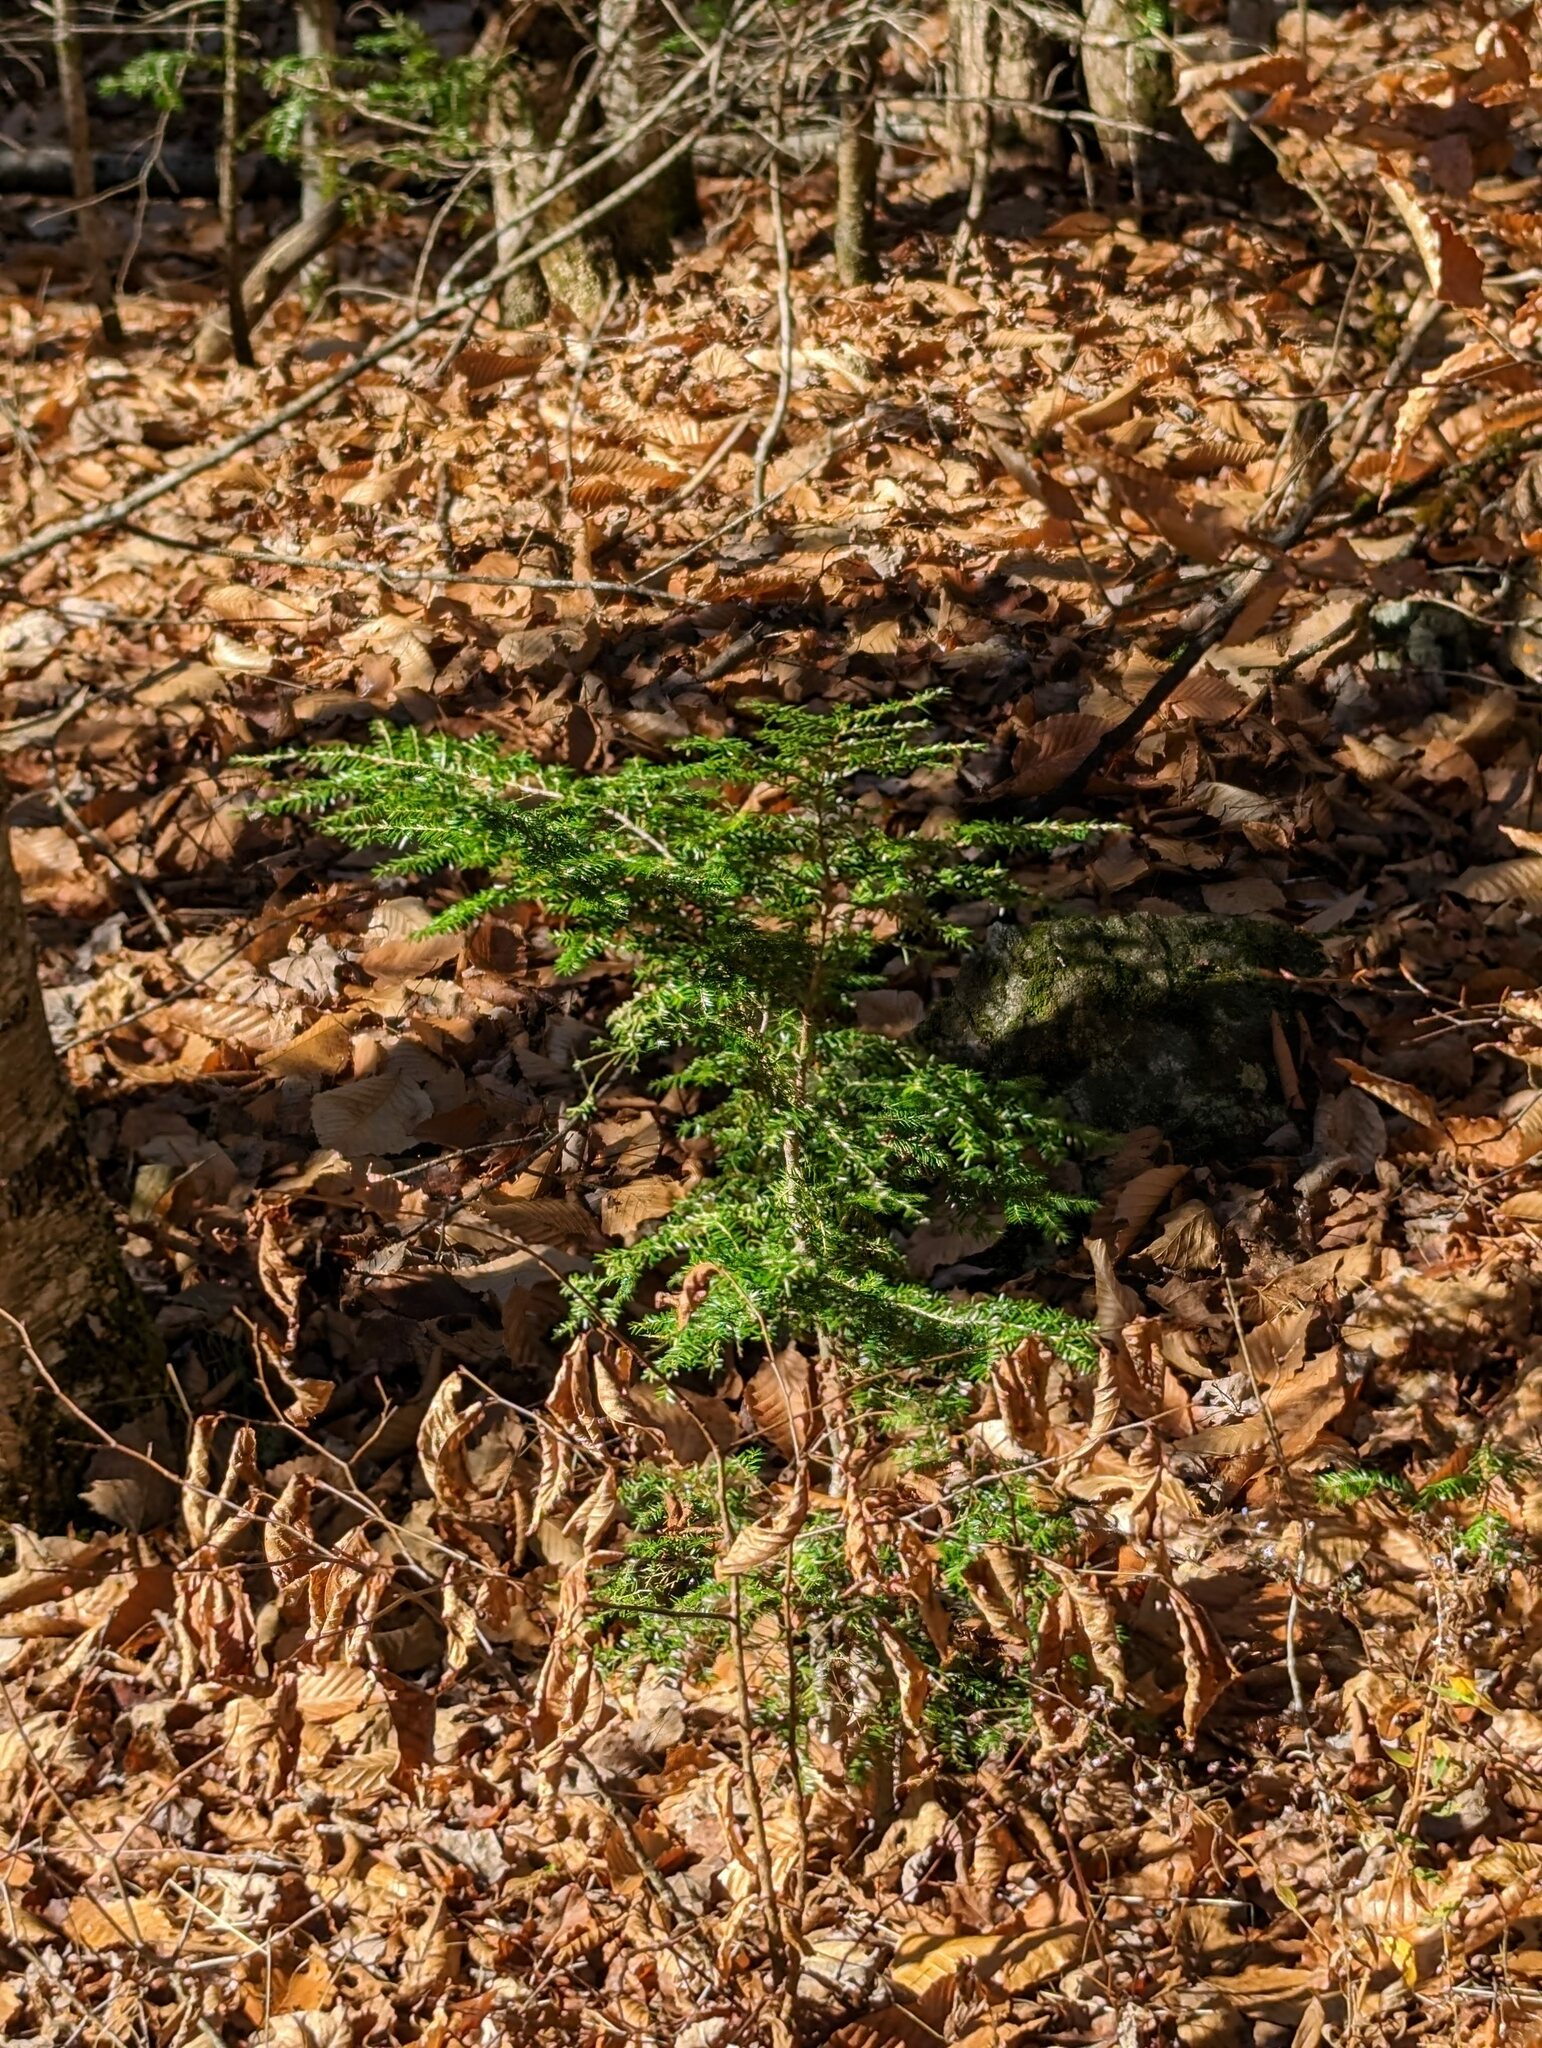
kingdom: Plantae
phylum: Tracheophyta
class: Pinopsida
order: Pinales
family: Pinaceae
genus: Tsuga
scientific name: Tsuga canadensis
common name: Eastern hemlock
